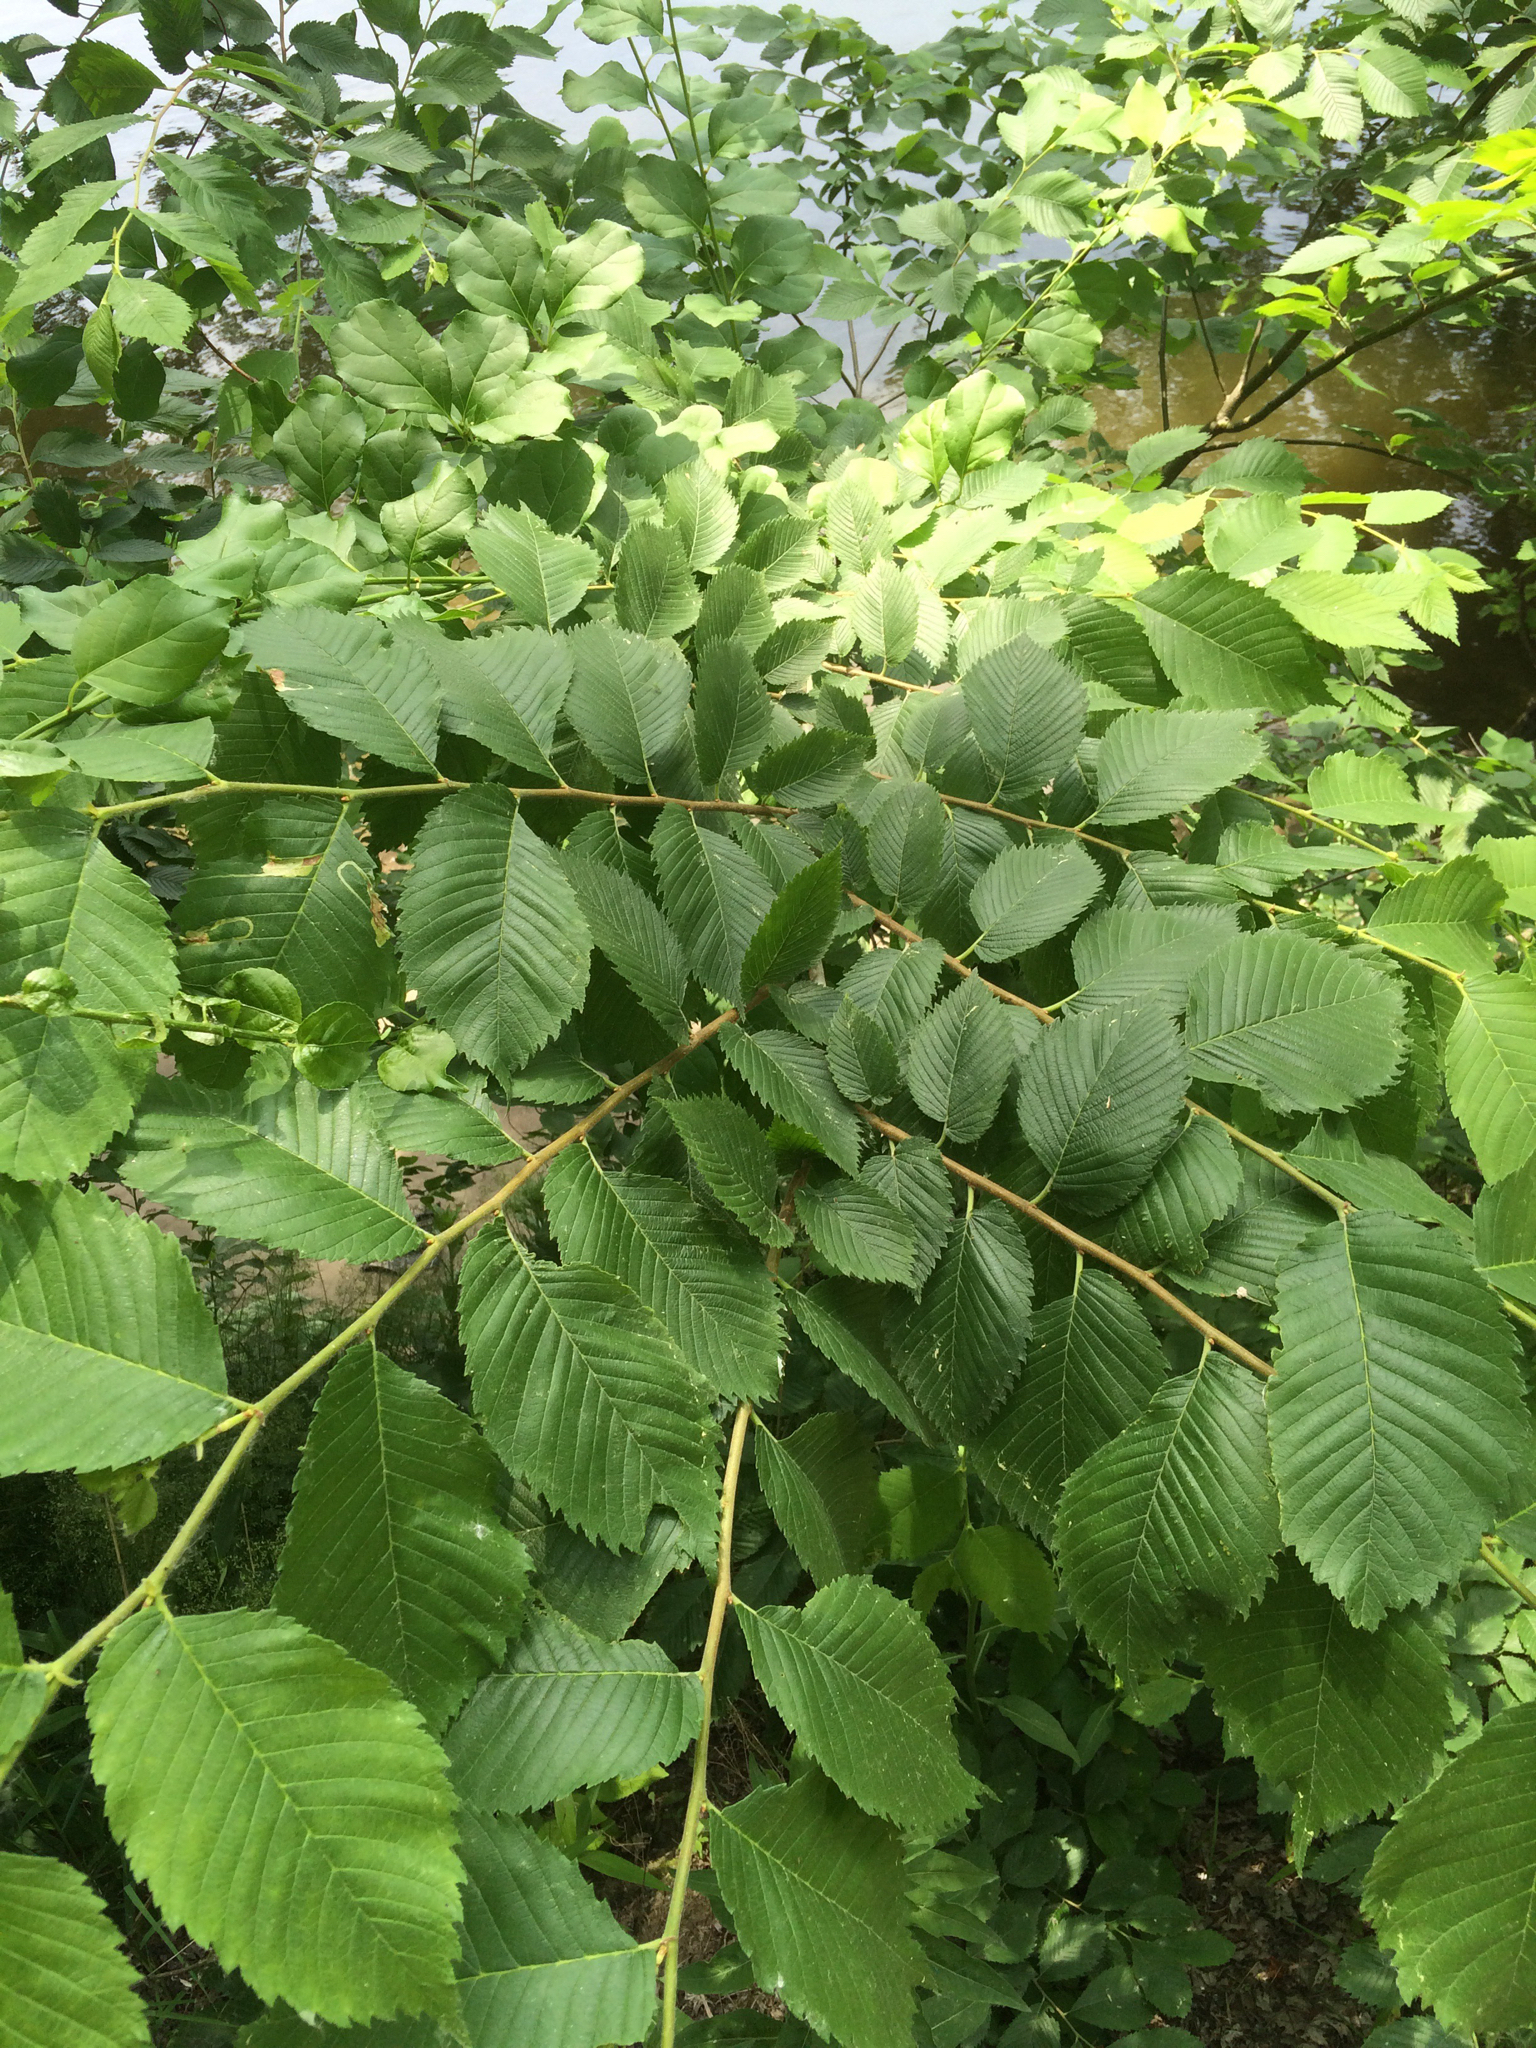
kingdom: Plantae
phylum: Tracheophyta
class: Magnoliopsida
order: Rosales
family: Ulmaceae
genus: Ulmus
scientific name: Ulmus americana
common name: American elm
